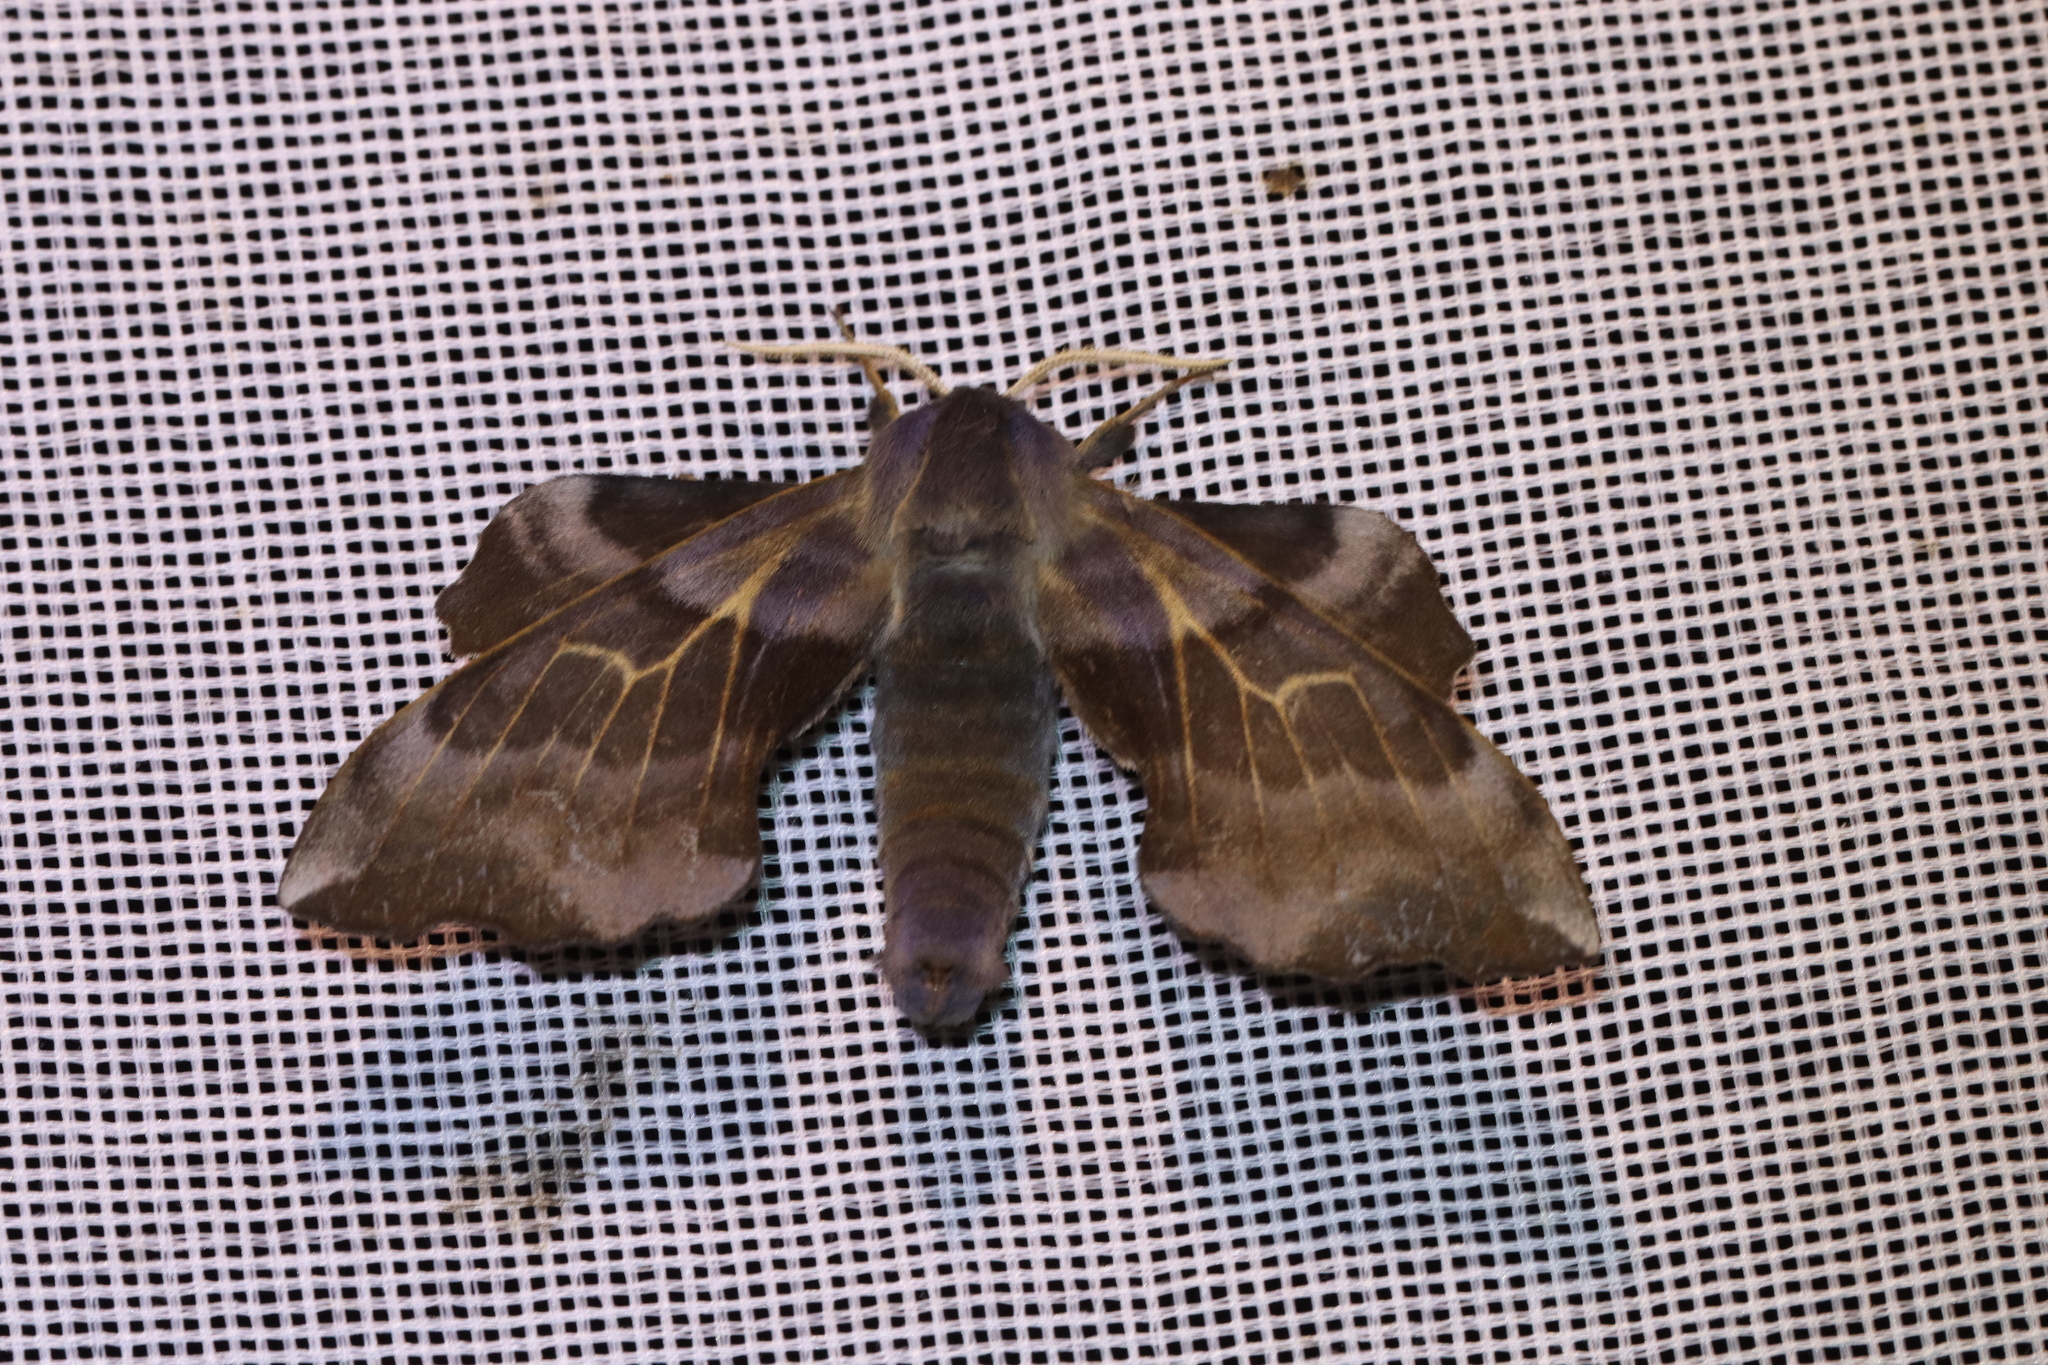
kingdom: Animalia
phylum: Arthropoda
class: Insecta
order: Lepidoptera
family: Sphingidae
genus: Laothoe
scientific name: Laothoe amurensis
